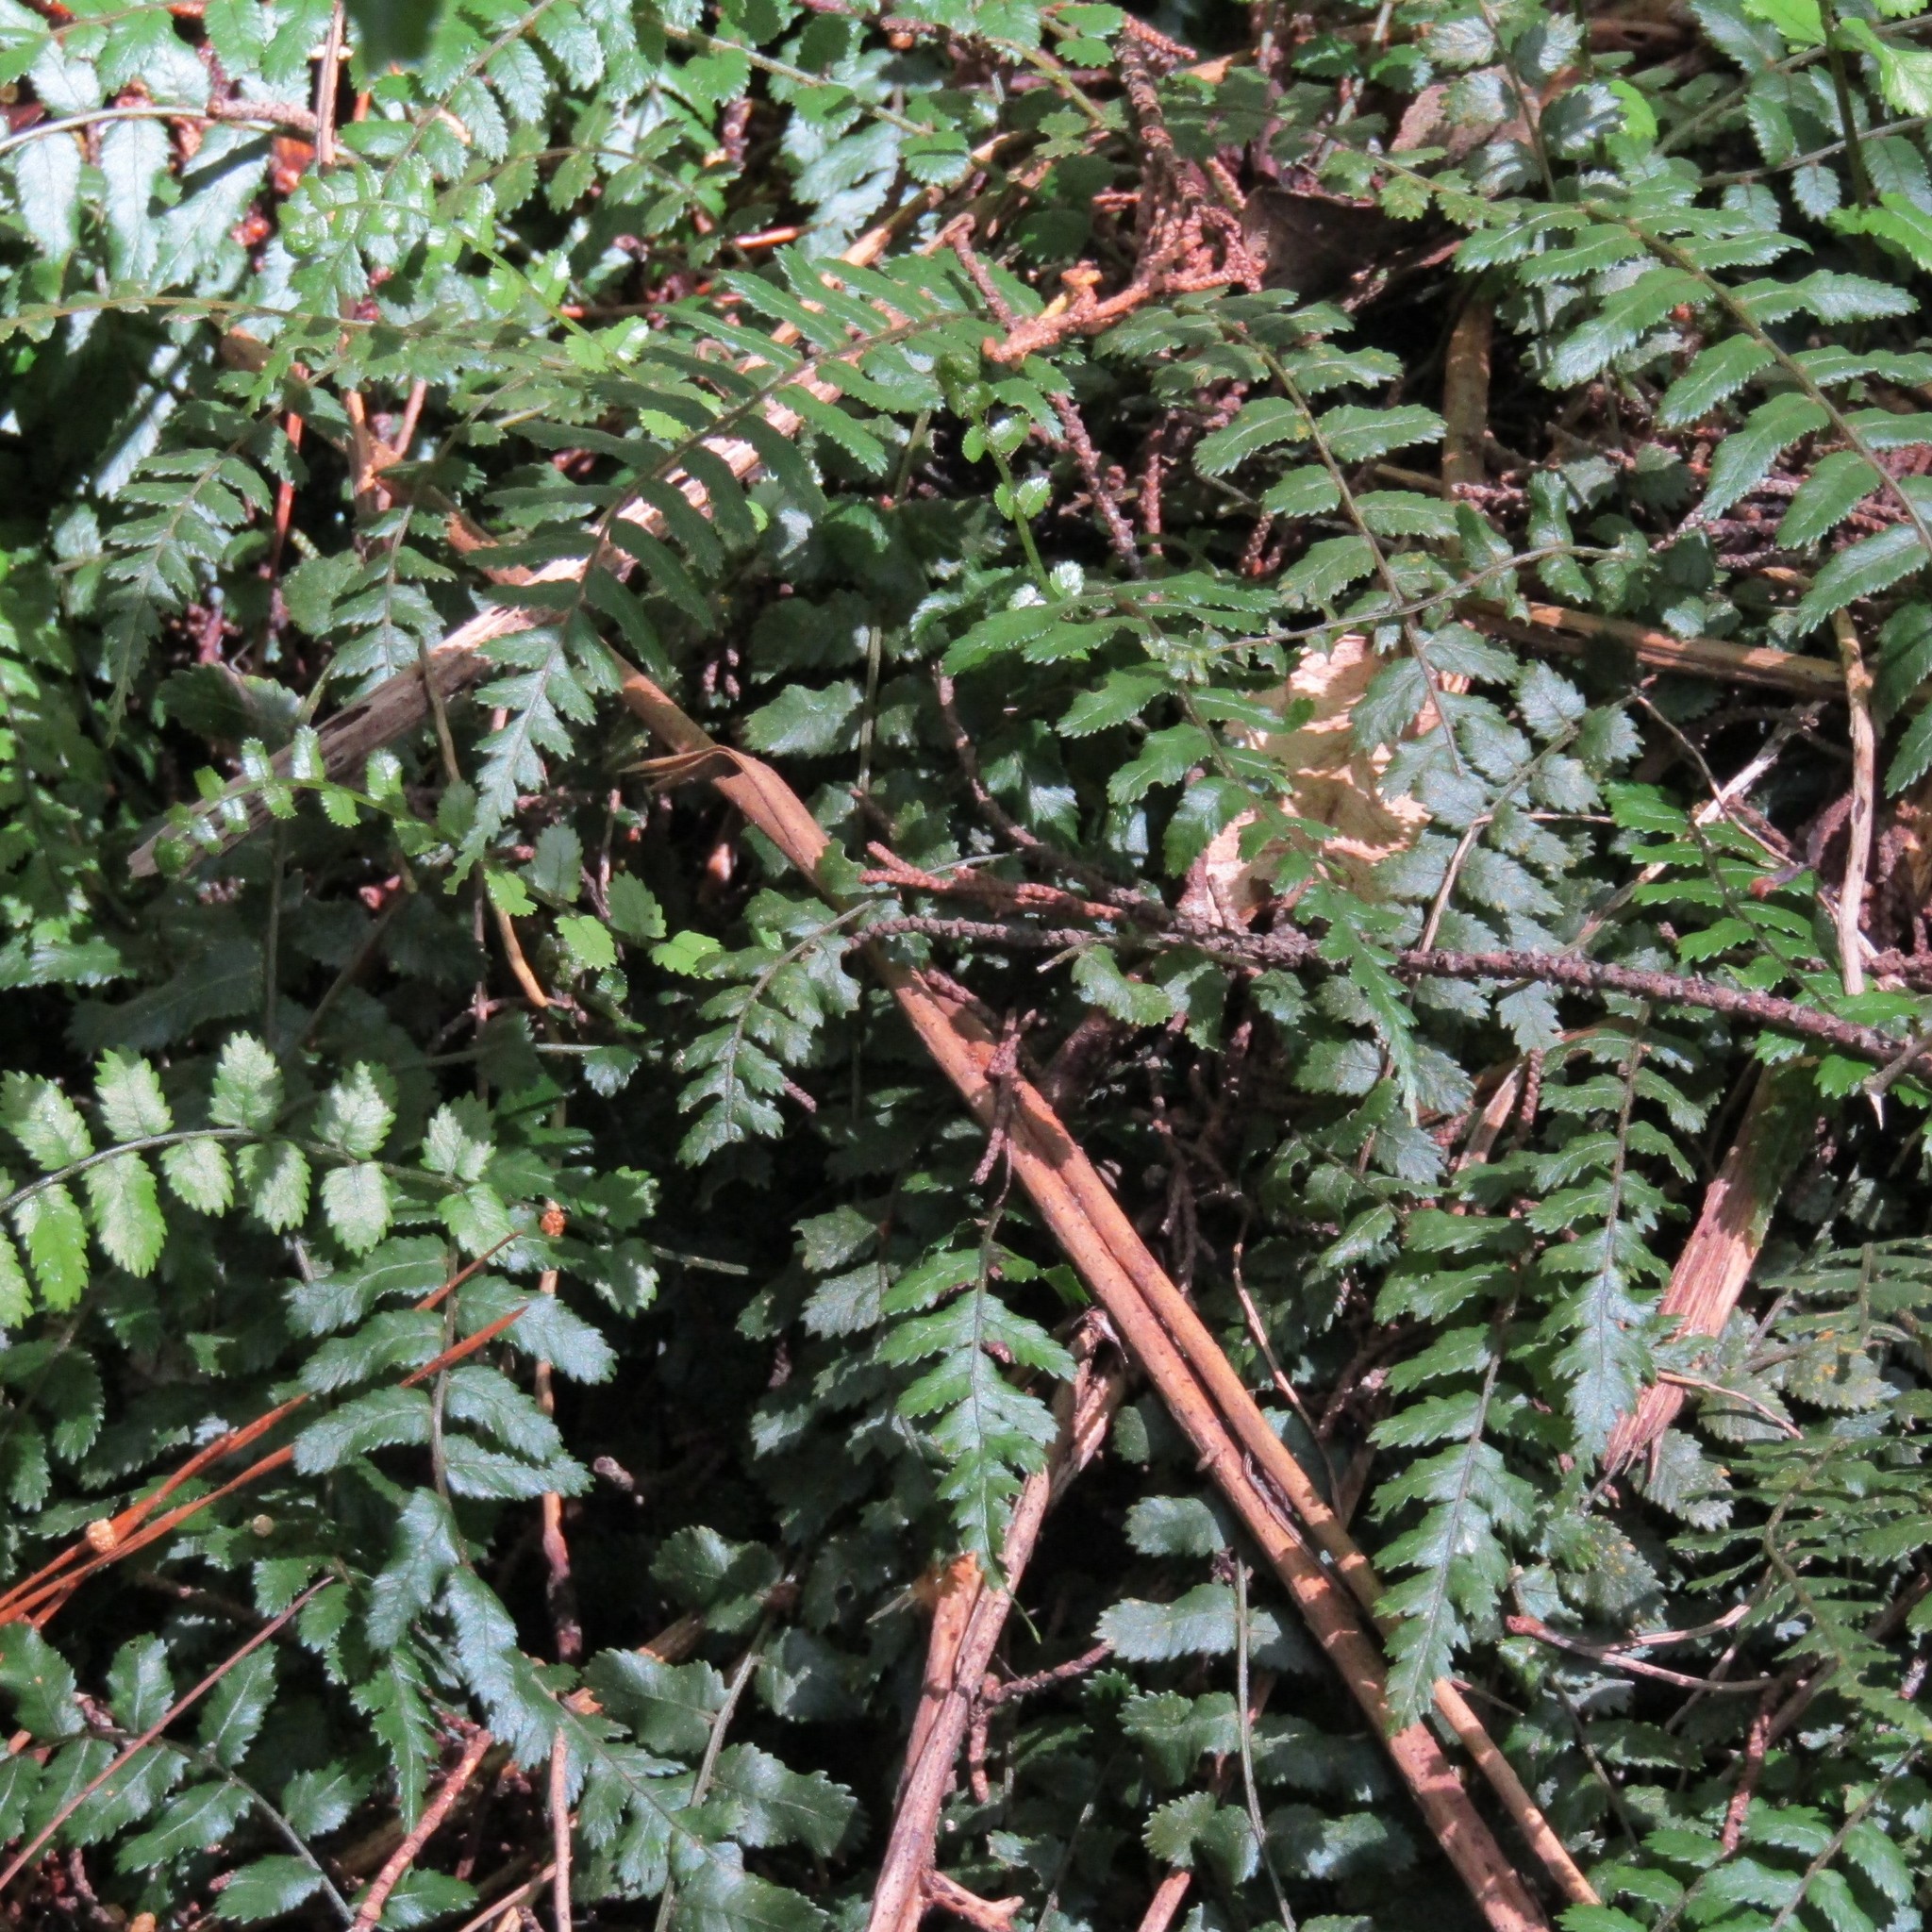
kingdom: Plantae
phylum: Tracheophyta
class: Polypodiopsida
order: Polypodiales
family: Blechnaceae
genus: Icarus
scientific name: Icarus filiformis
